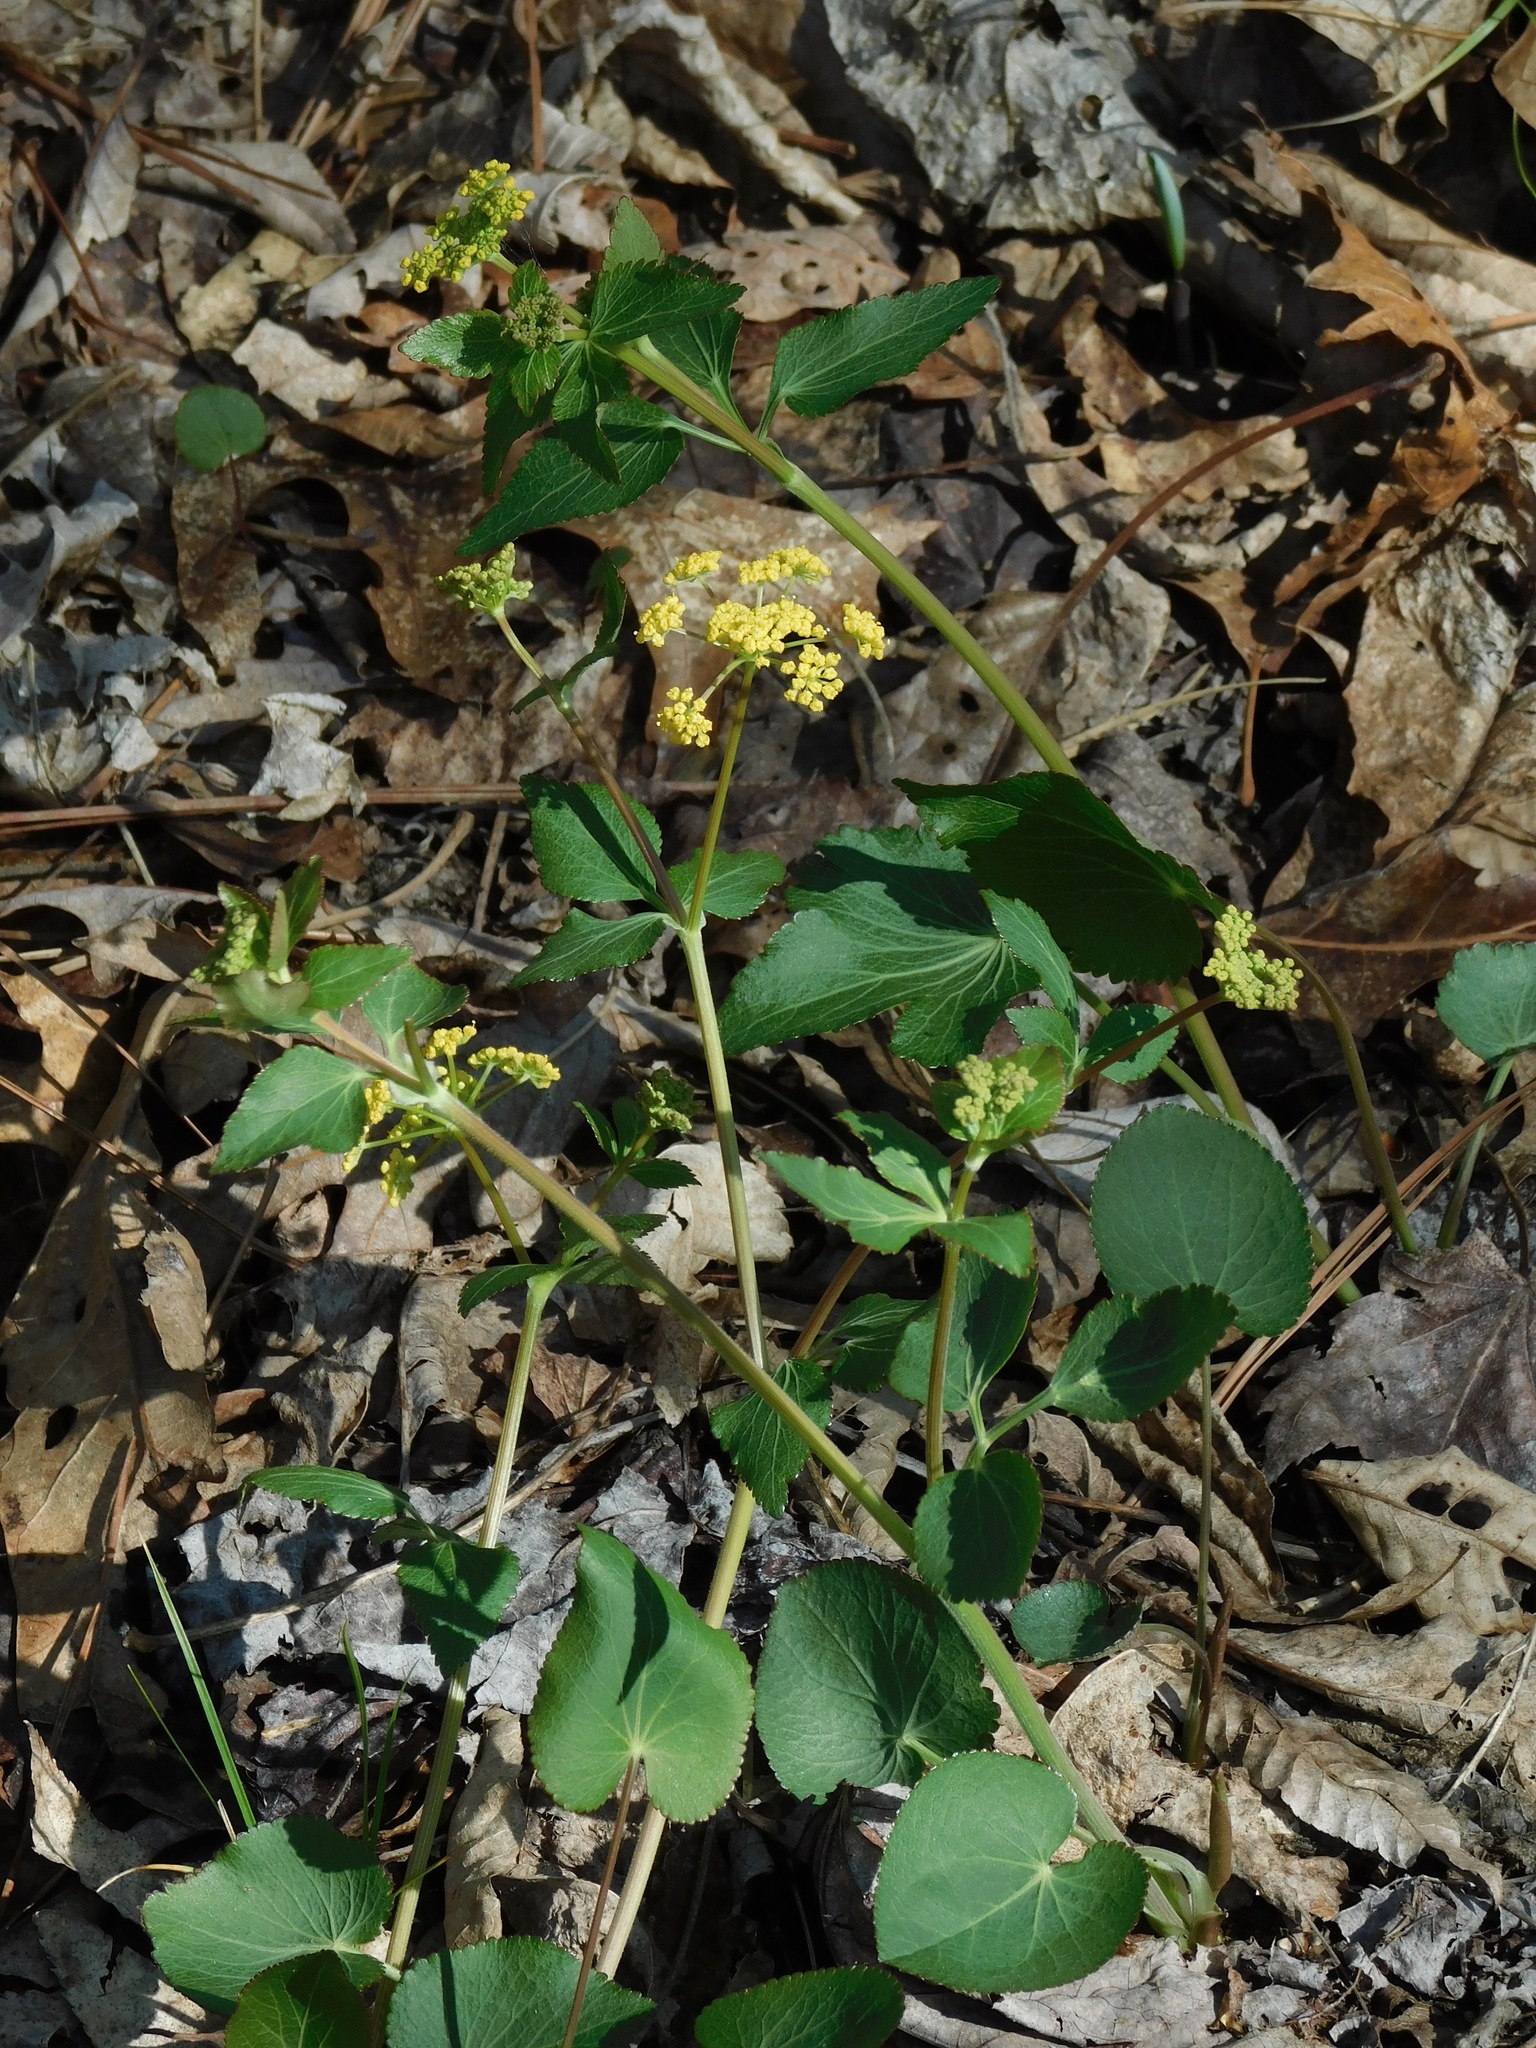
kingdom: Plantae
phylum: Tracheophyta
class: Magnoliopsida
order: Apiales
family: Apiaceae
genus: Zizia
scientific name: Zizia aptera
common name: Heart-leaved alexanders
